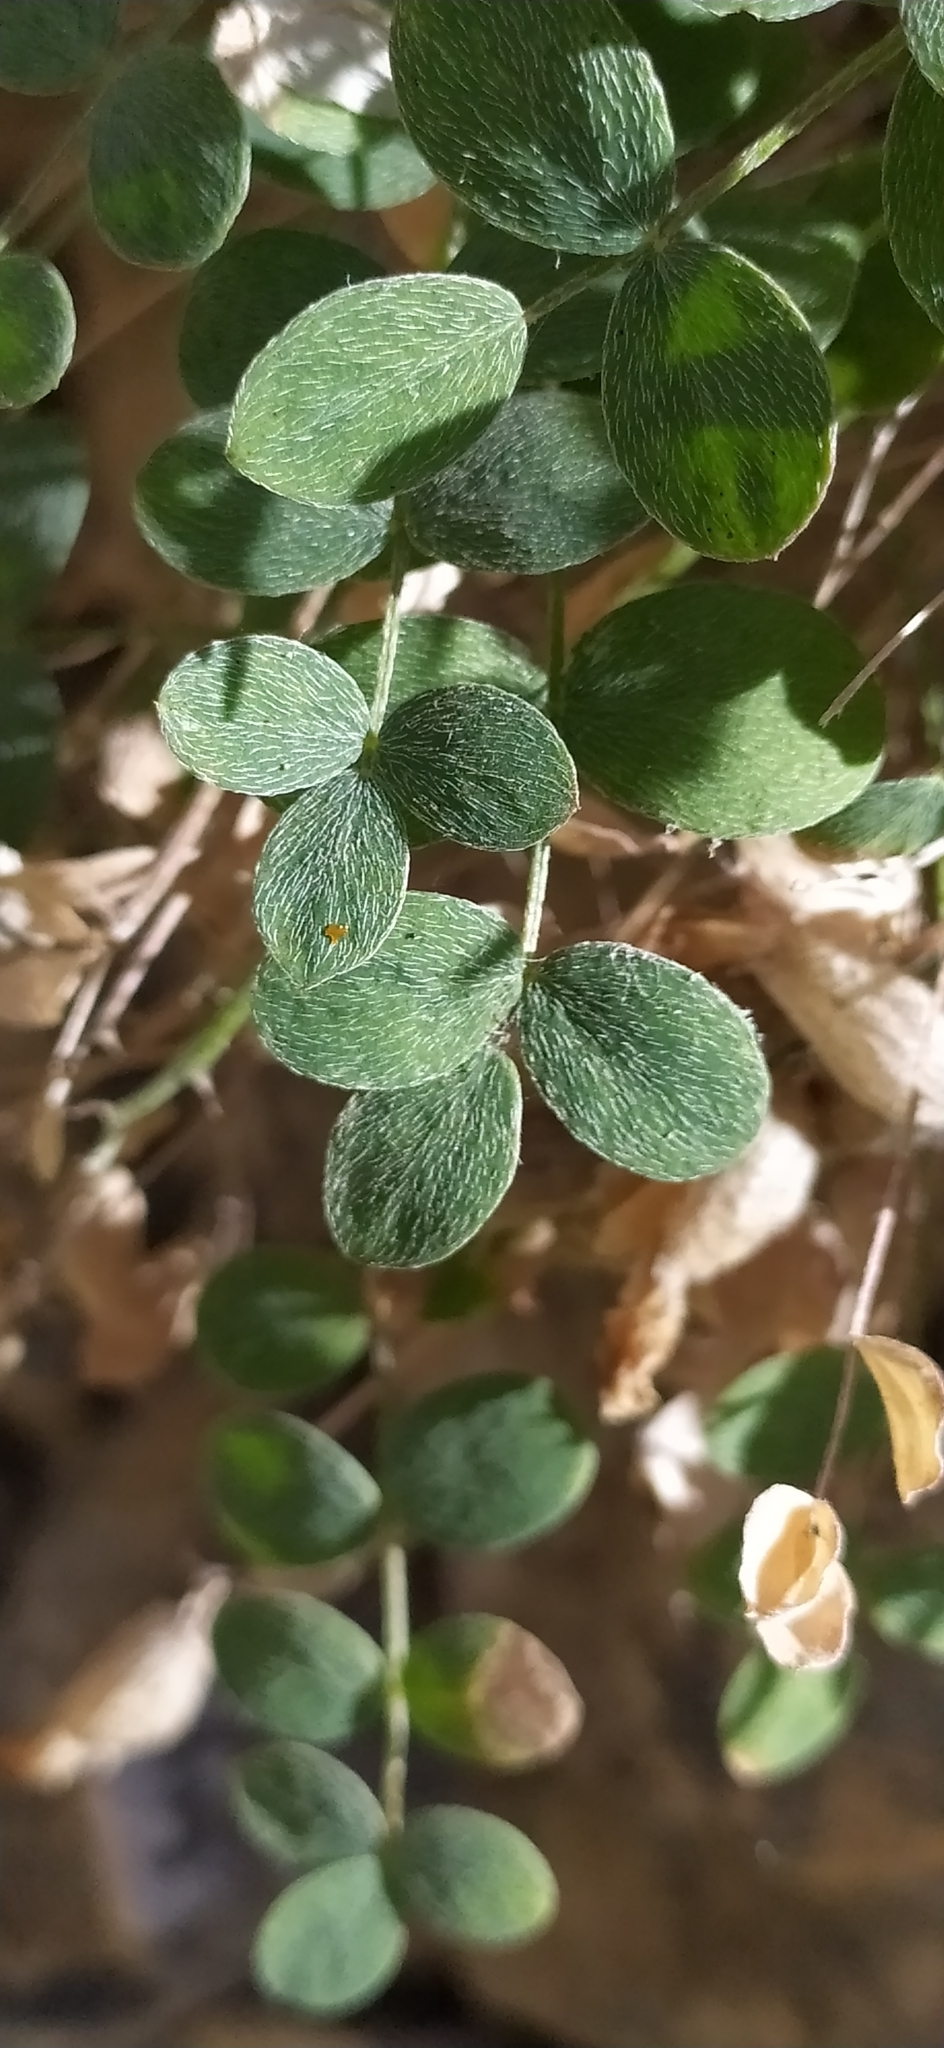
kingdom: Plantae
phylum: Tracheophyta
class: Magnoliopsida
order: Fabales
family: Fabaceae
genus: Astragalus
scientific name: Astragalus abolinii
